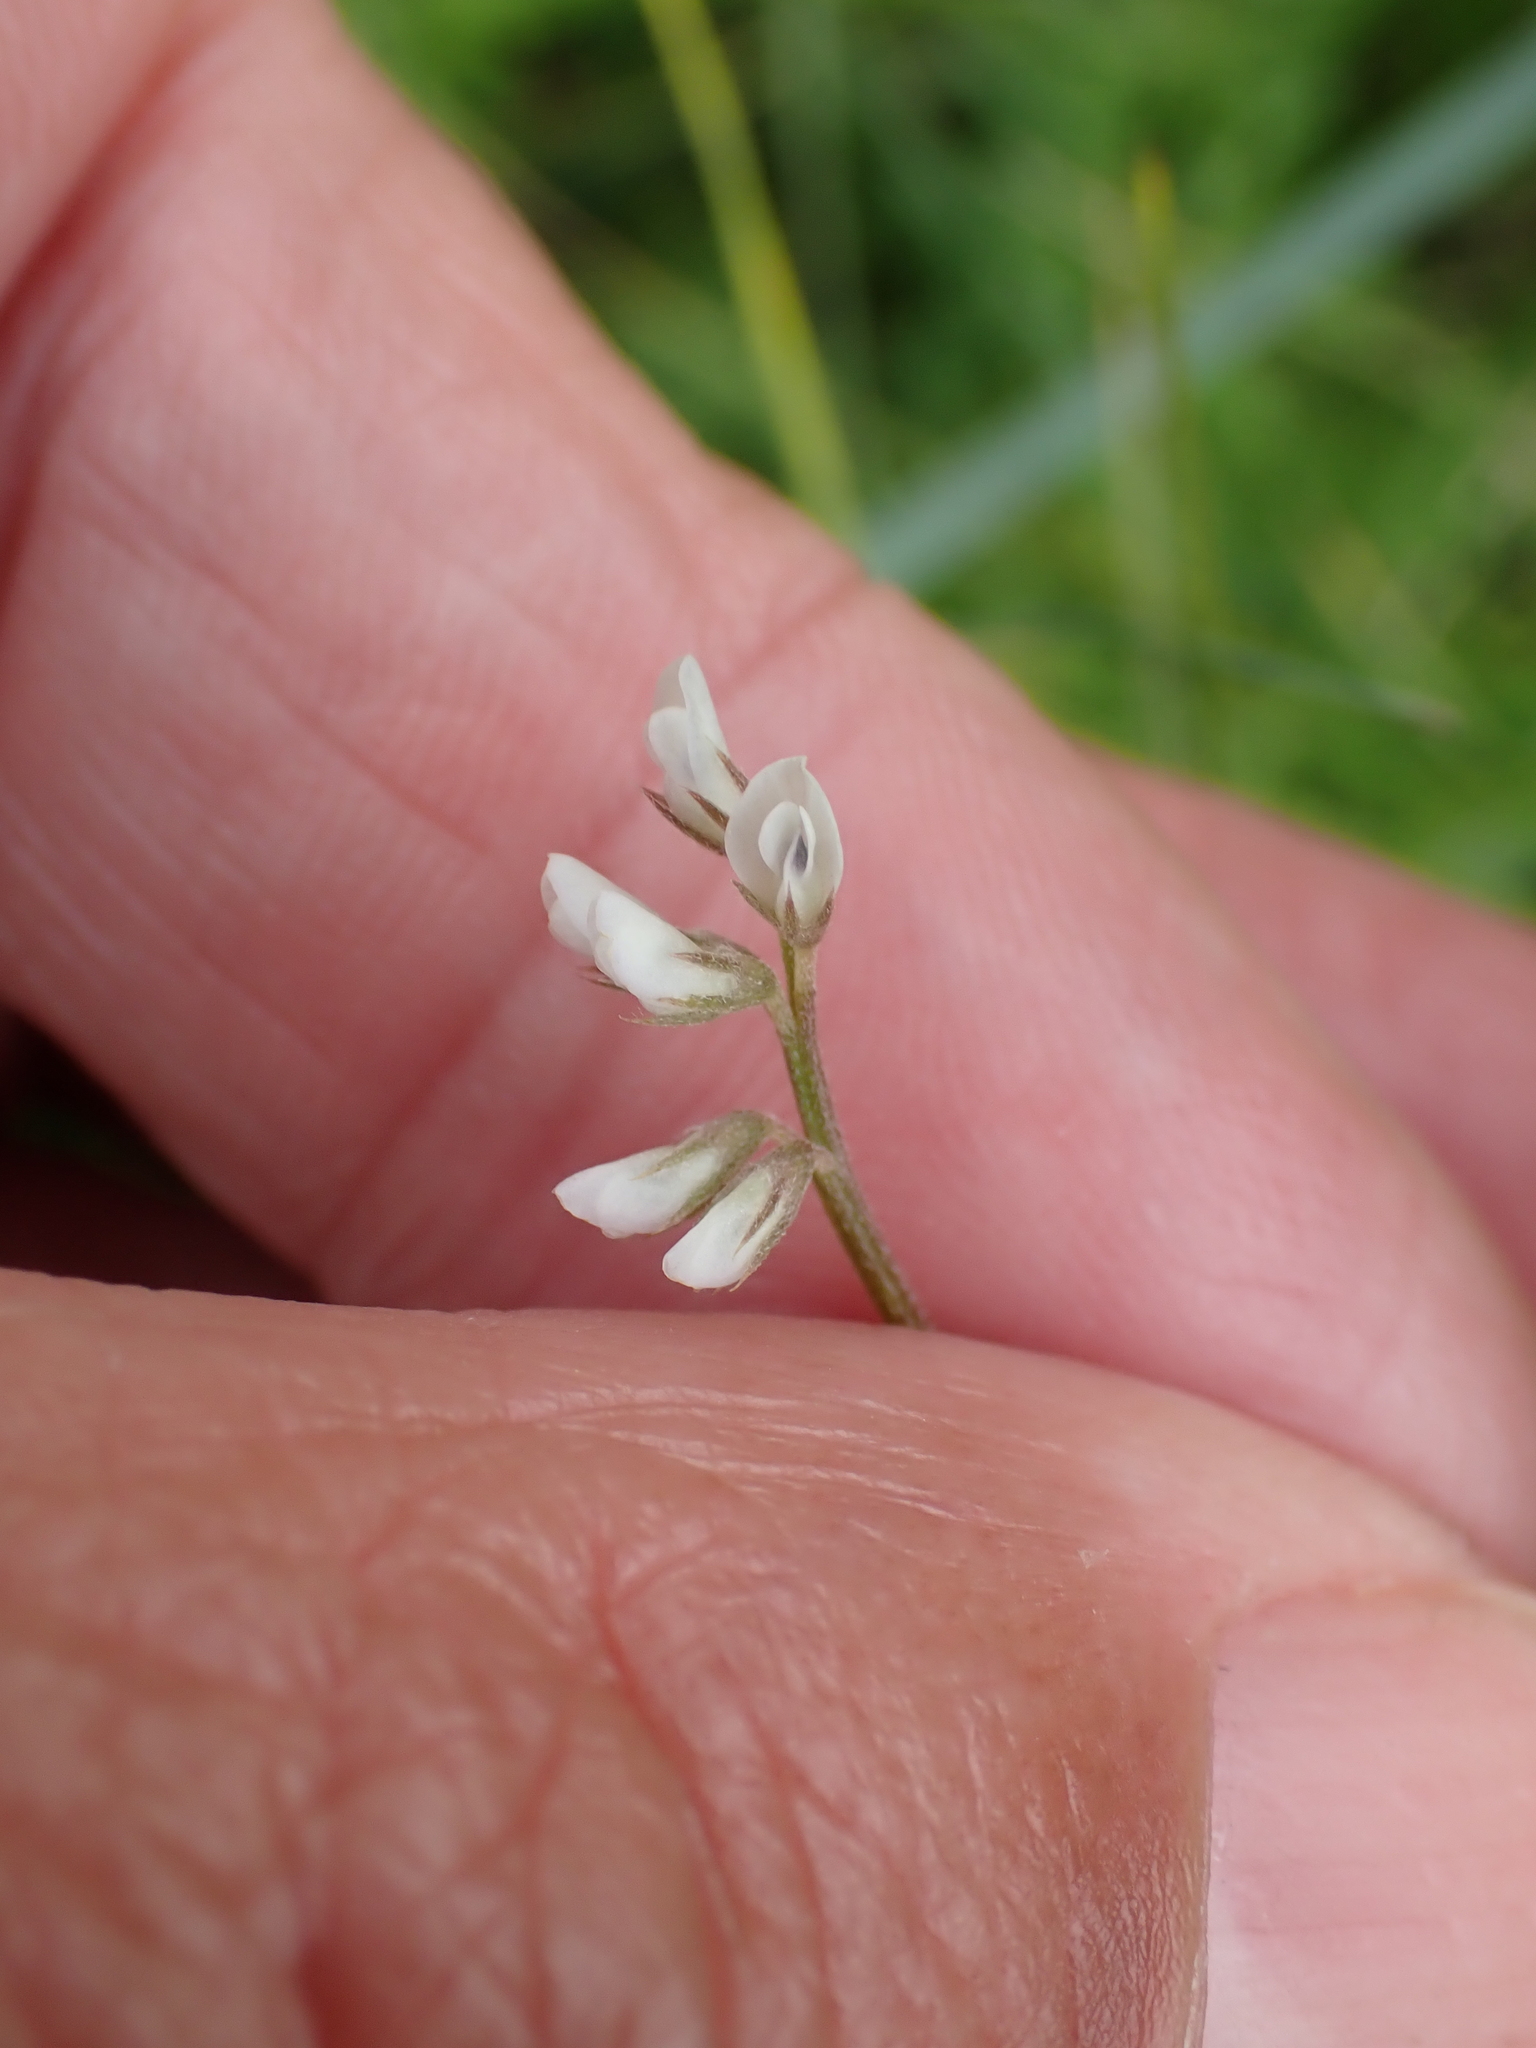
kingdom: Plantae
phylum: Tracheophyta
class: Magnoliopsida
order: Fabales
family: Fabaceae
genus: Vicia
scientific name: Vicia hirsuta
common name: Tiny vetch
